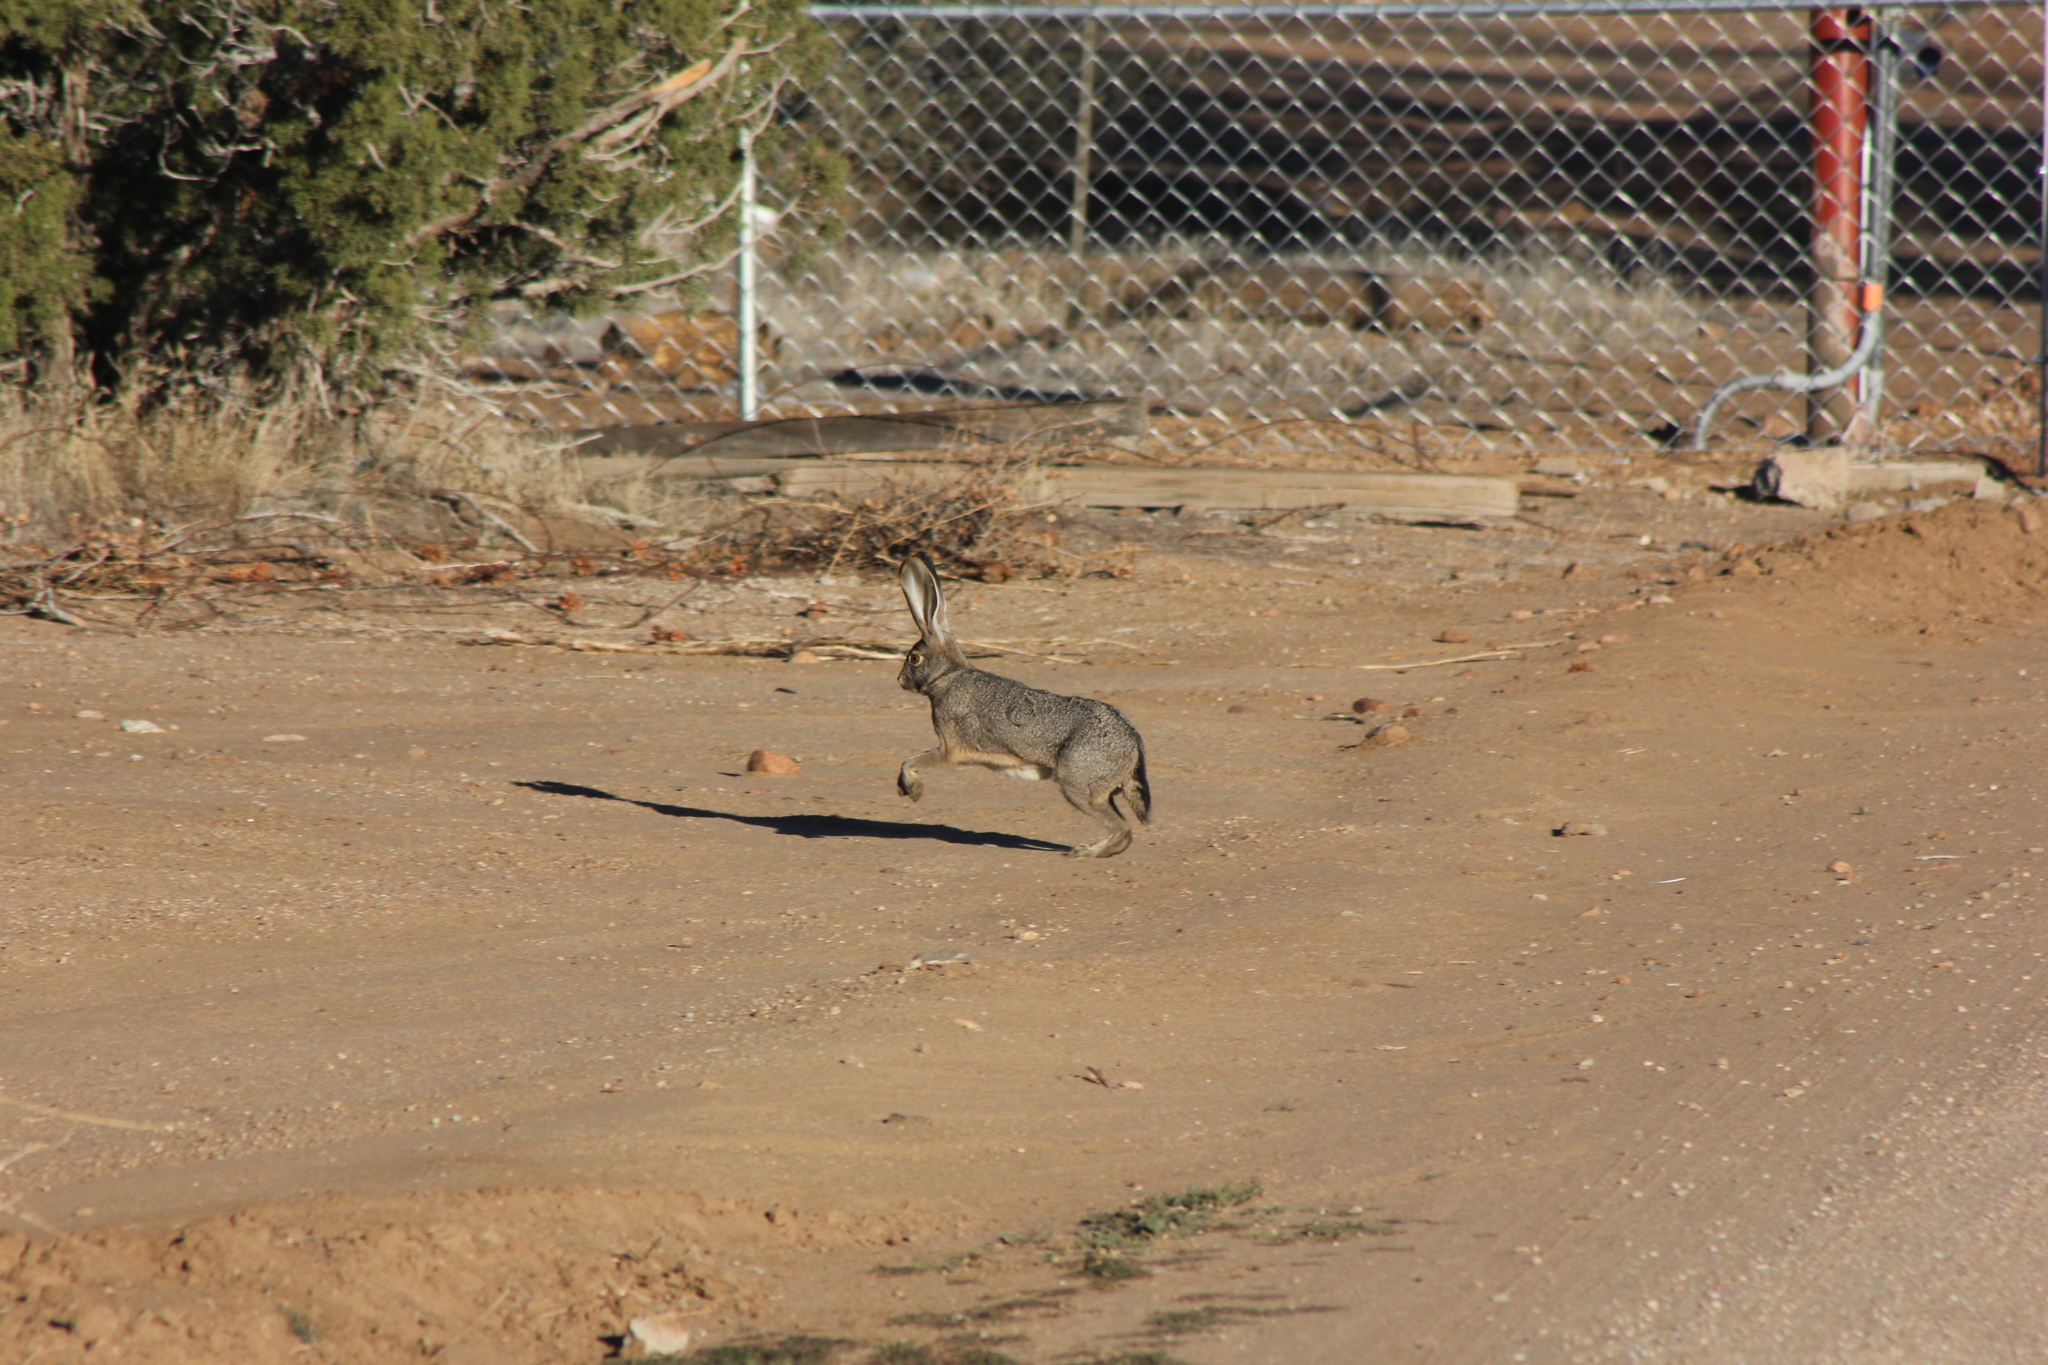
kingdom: Animalia
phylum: Chordata
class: Mammalia
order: Lagomorpha
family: Leporidae
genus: Lepus
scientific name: Lepus californicus
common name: Black-tailed jackrabbit
